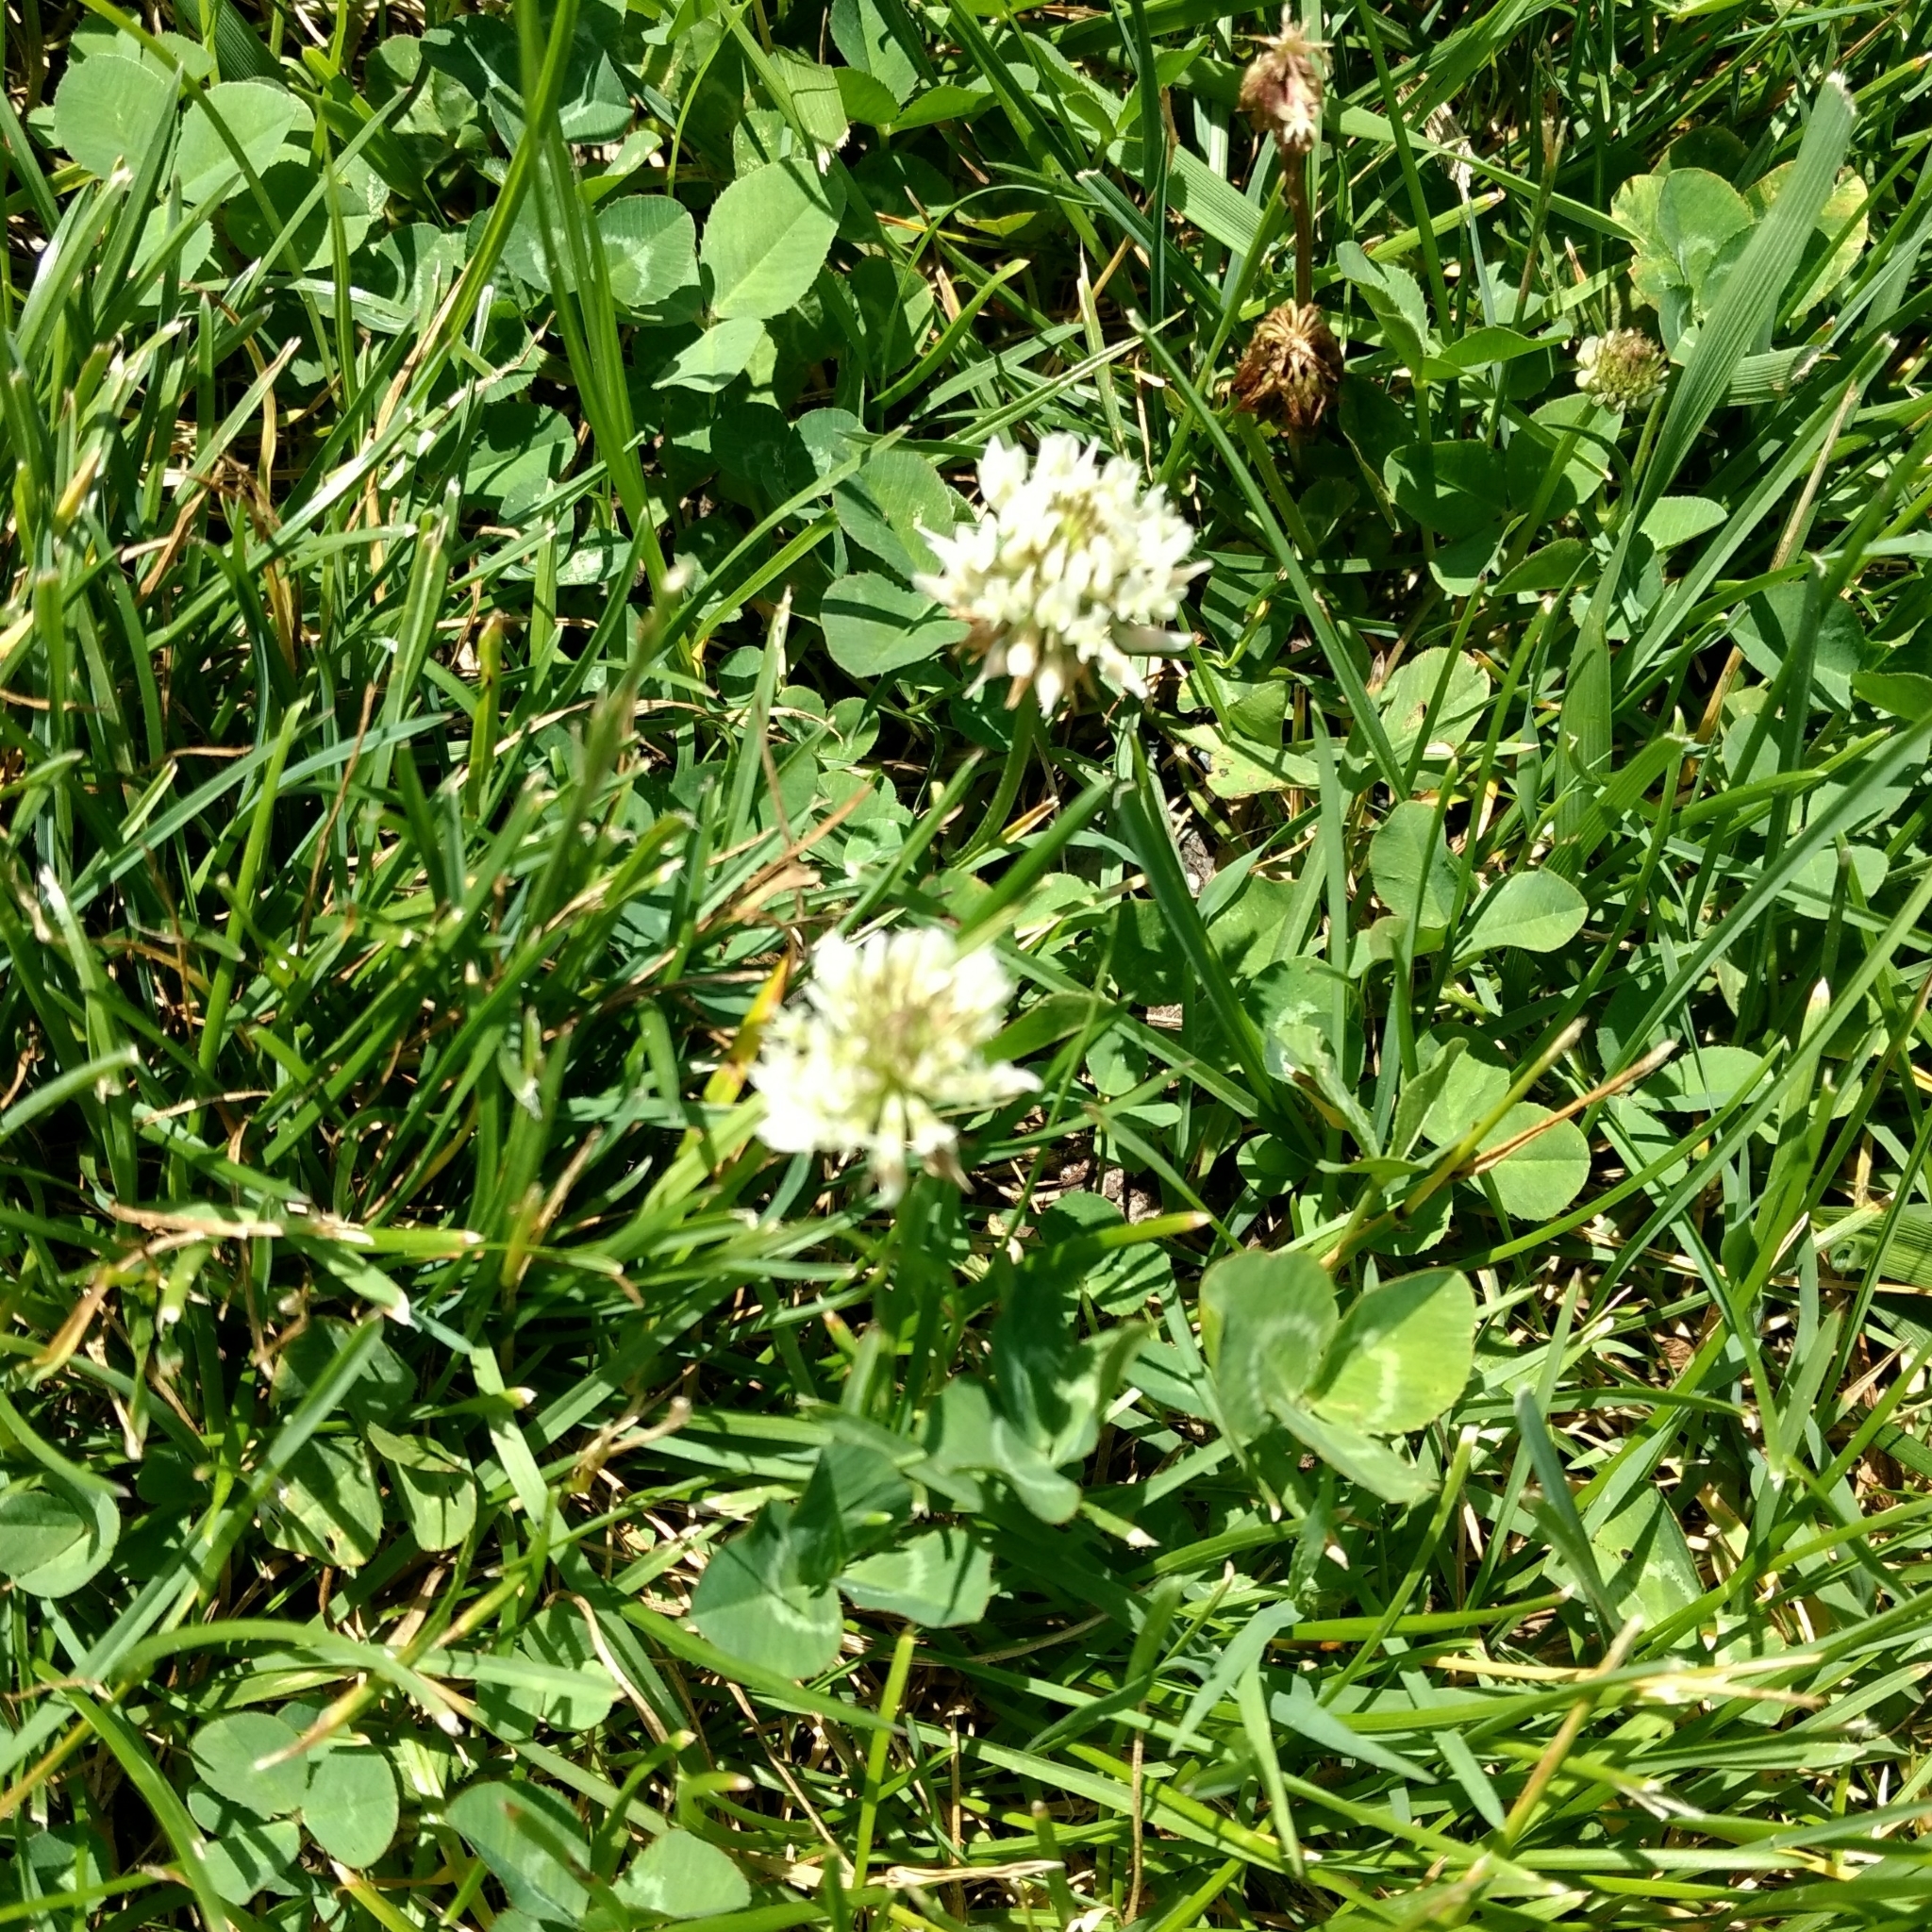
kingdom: Plantae
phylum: Tracheophyta
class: Magnoliopsida
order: Fabales
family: Fabaceae
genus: Trifolium
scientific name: Trifolium repens
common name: White clover
